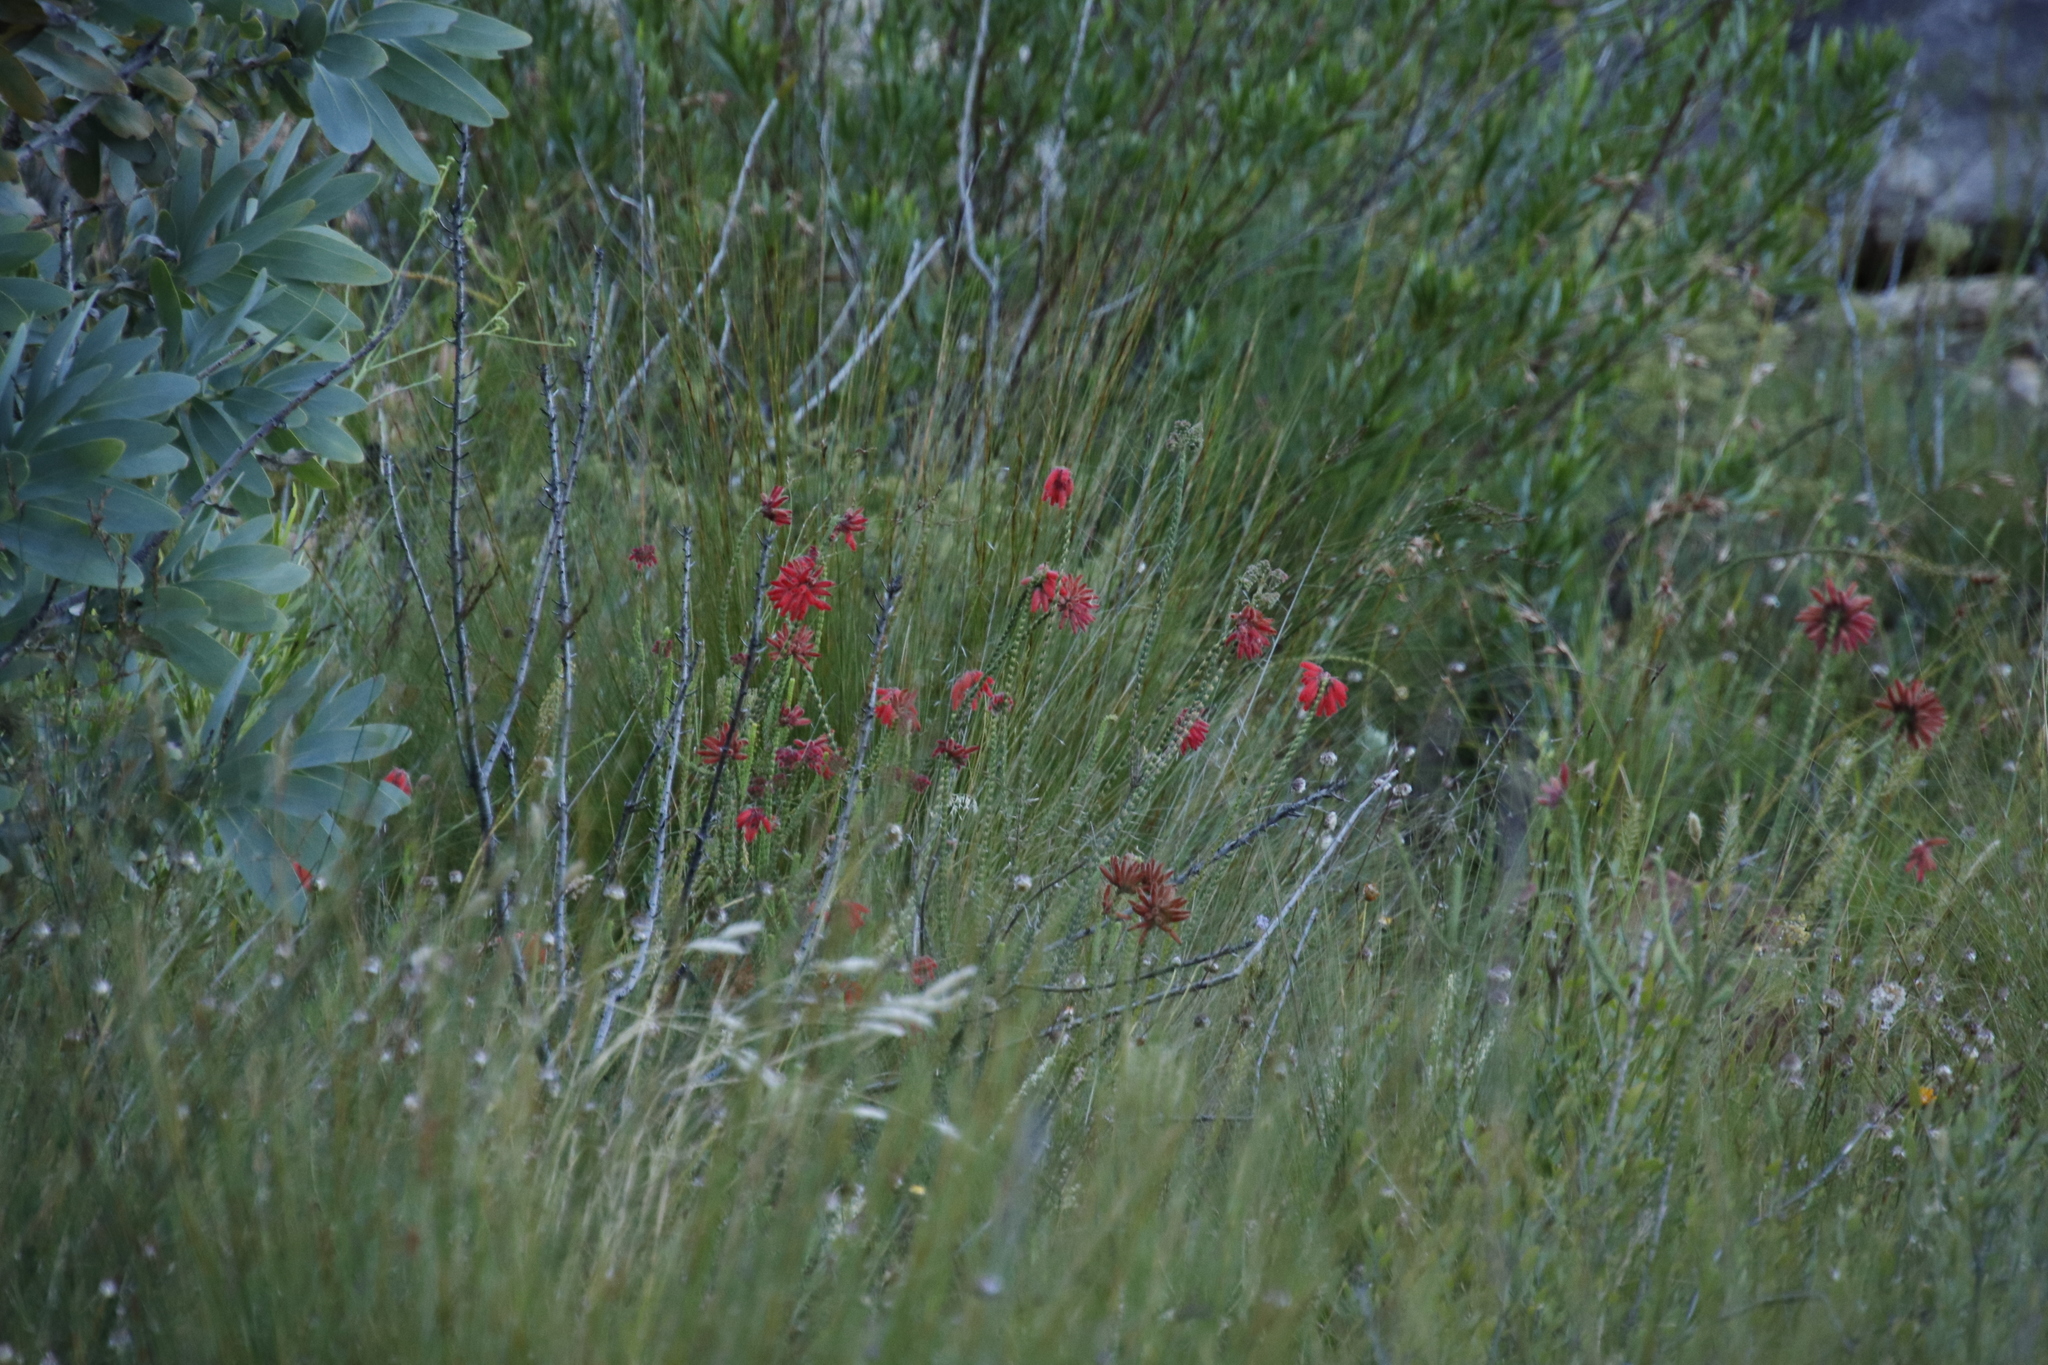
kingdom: Plantae
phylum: Tracheophyta
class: Magnoliopsida
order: Ericales
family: Ericaceae
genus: Erica
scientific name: Erica cerinthoides
